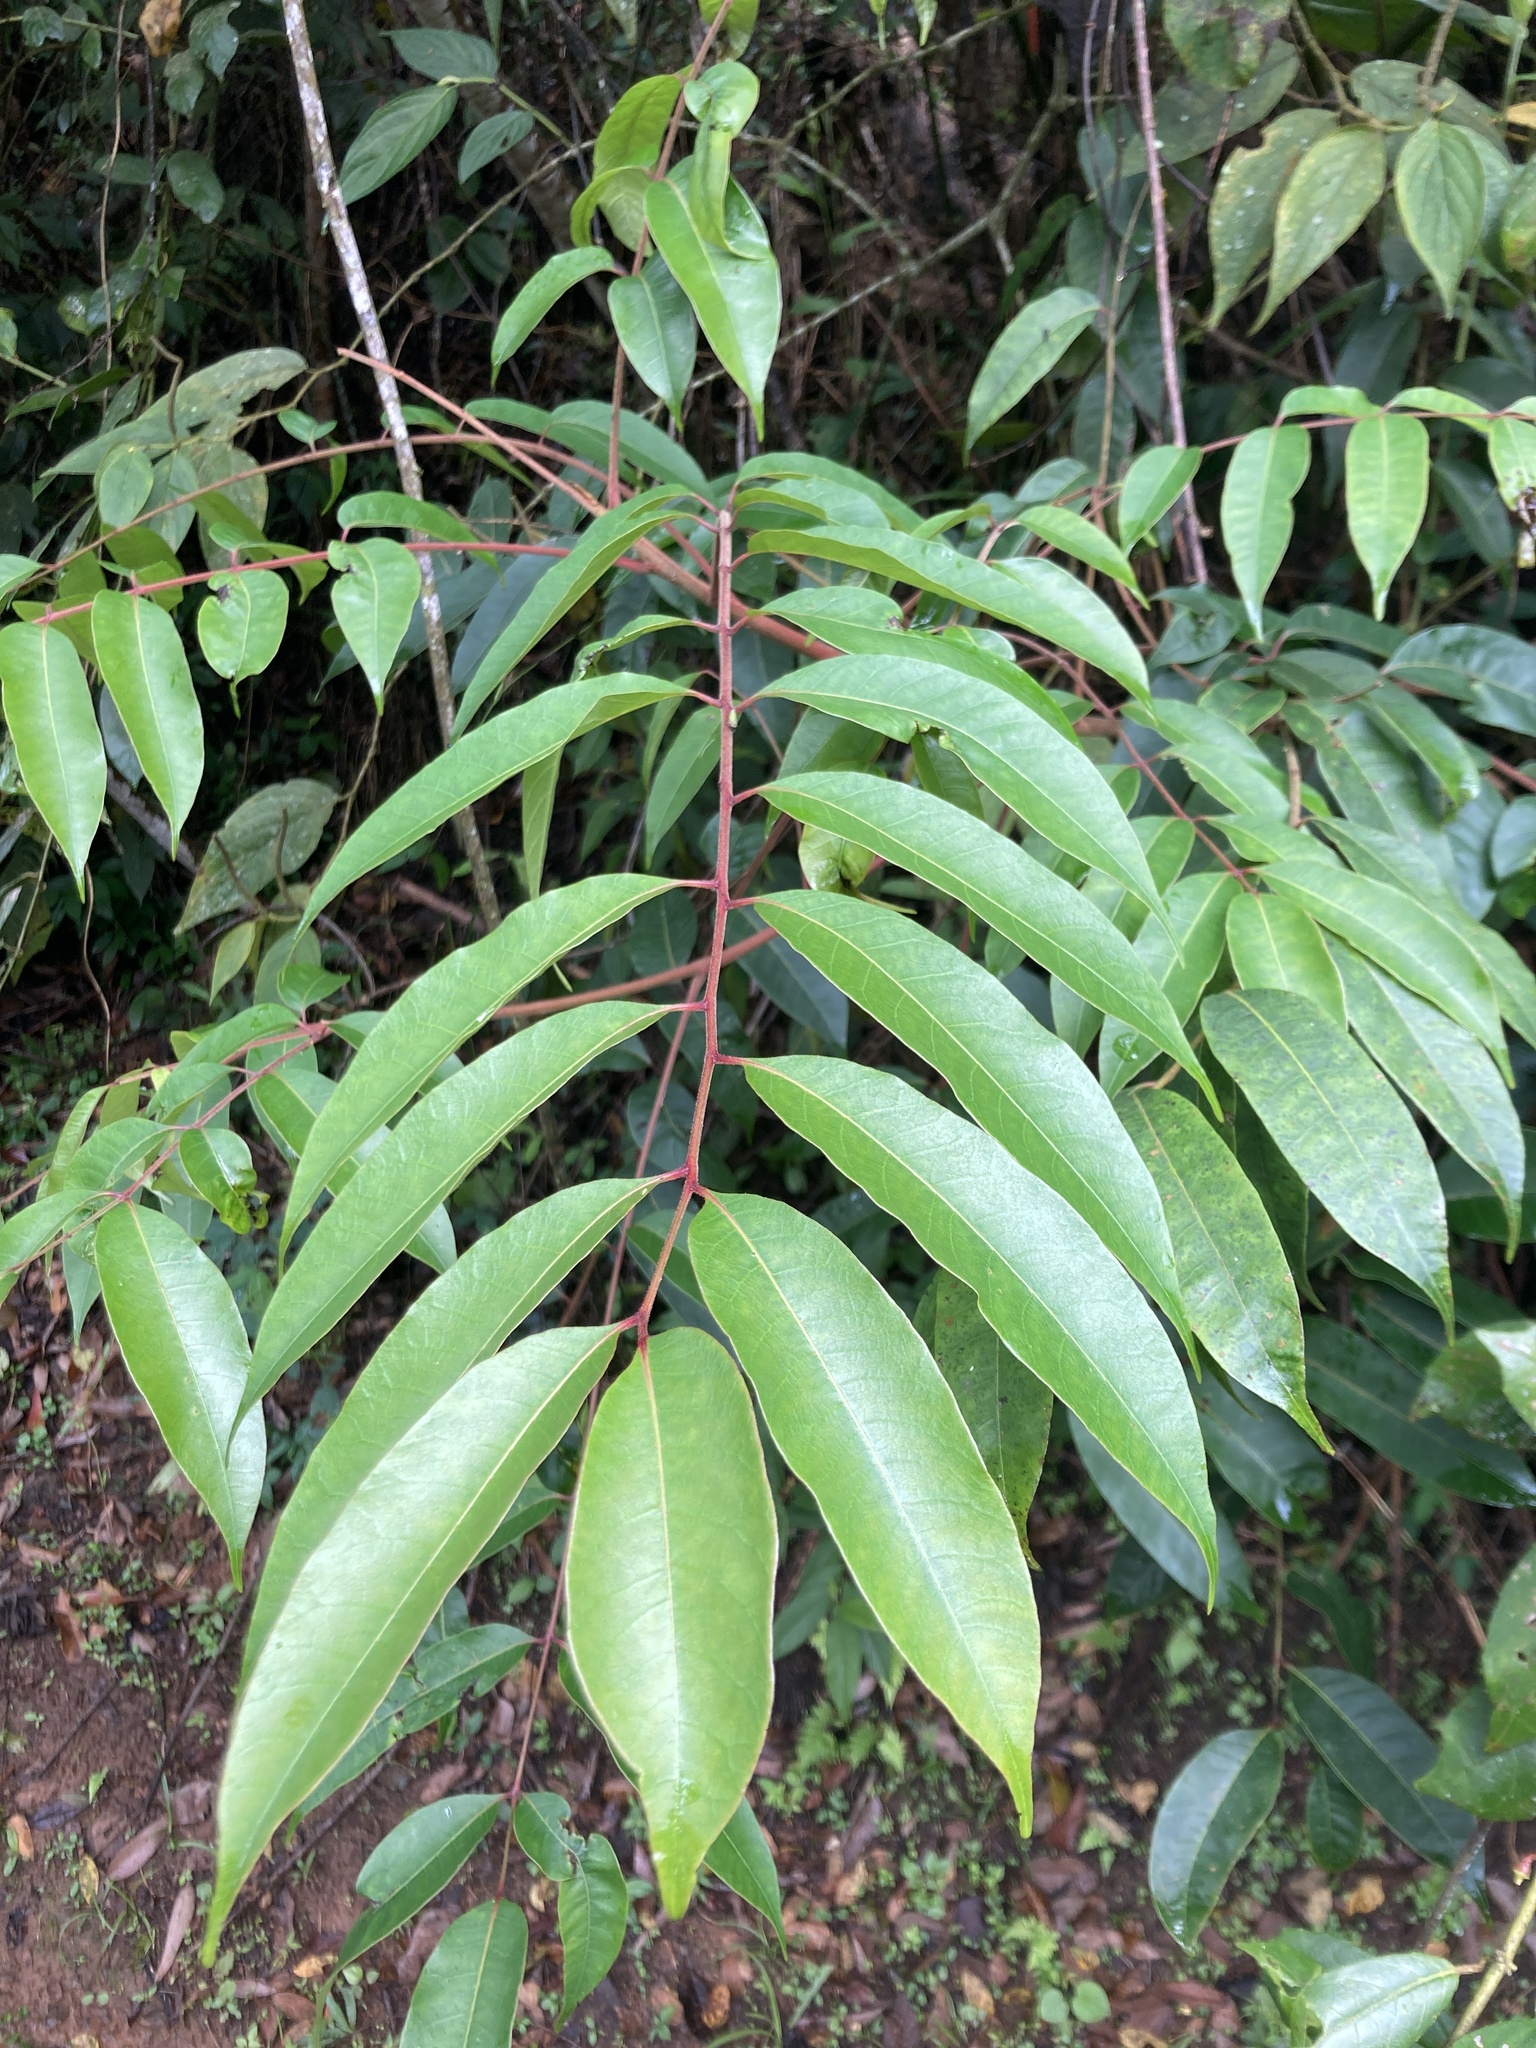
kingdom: Plantae
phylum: Tracheophyta
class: Magnoliopsida
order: Sapindales
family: Anacardiaceae
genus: Toxicodendron
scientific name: Toxicodendron striatum
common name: Sumac
